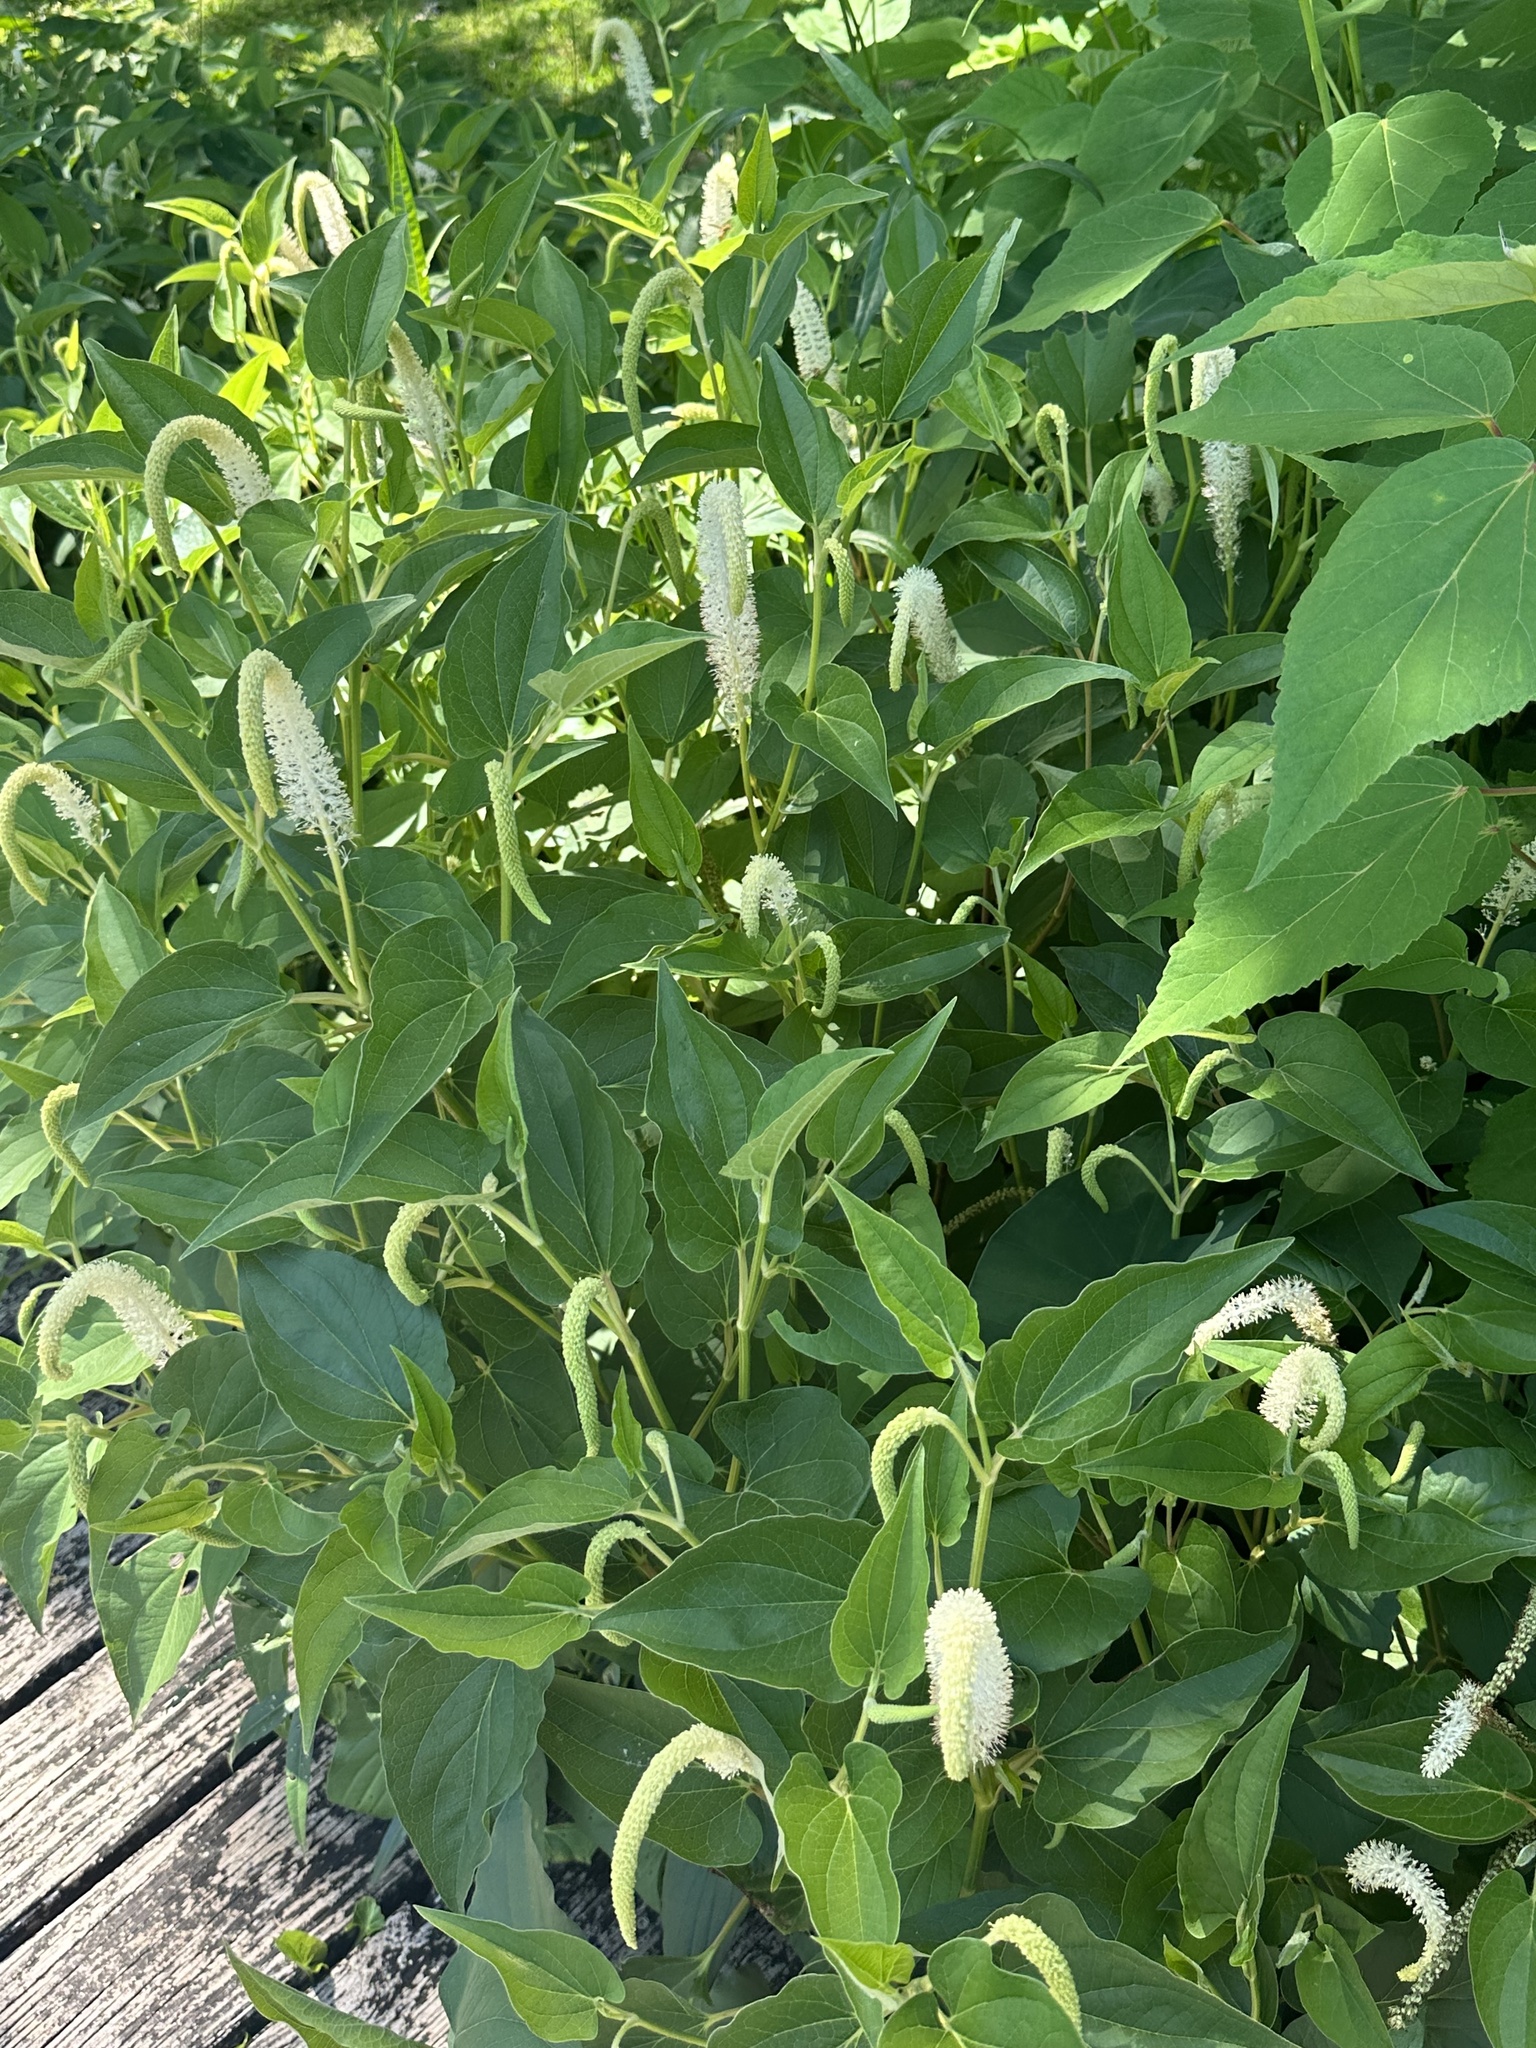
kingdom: Plantae
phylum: Tracheophyta
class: Magnoliopsida
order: Piperales
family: Saururaceae
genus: Saururus
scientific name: Saururus cernuus
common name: Lizard's-tail
